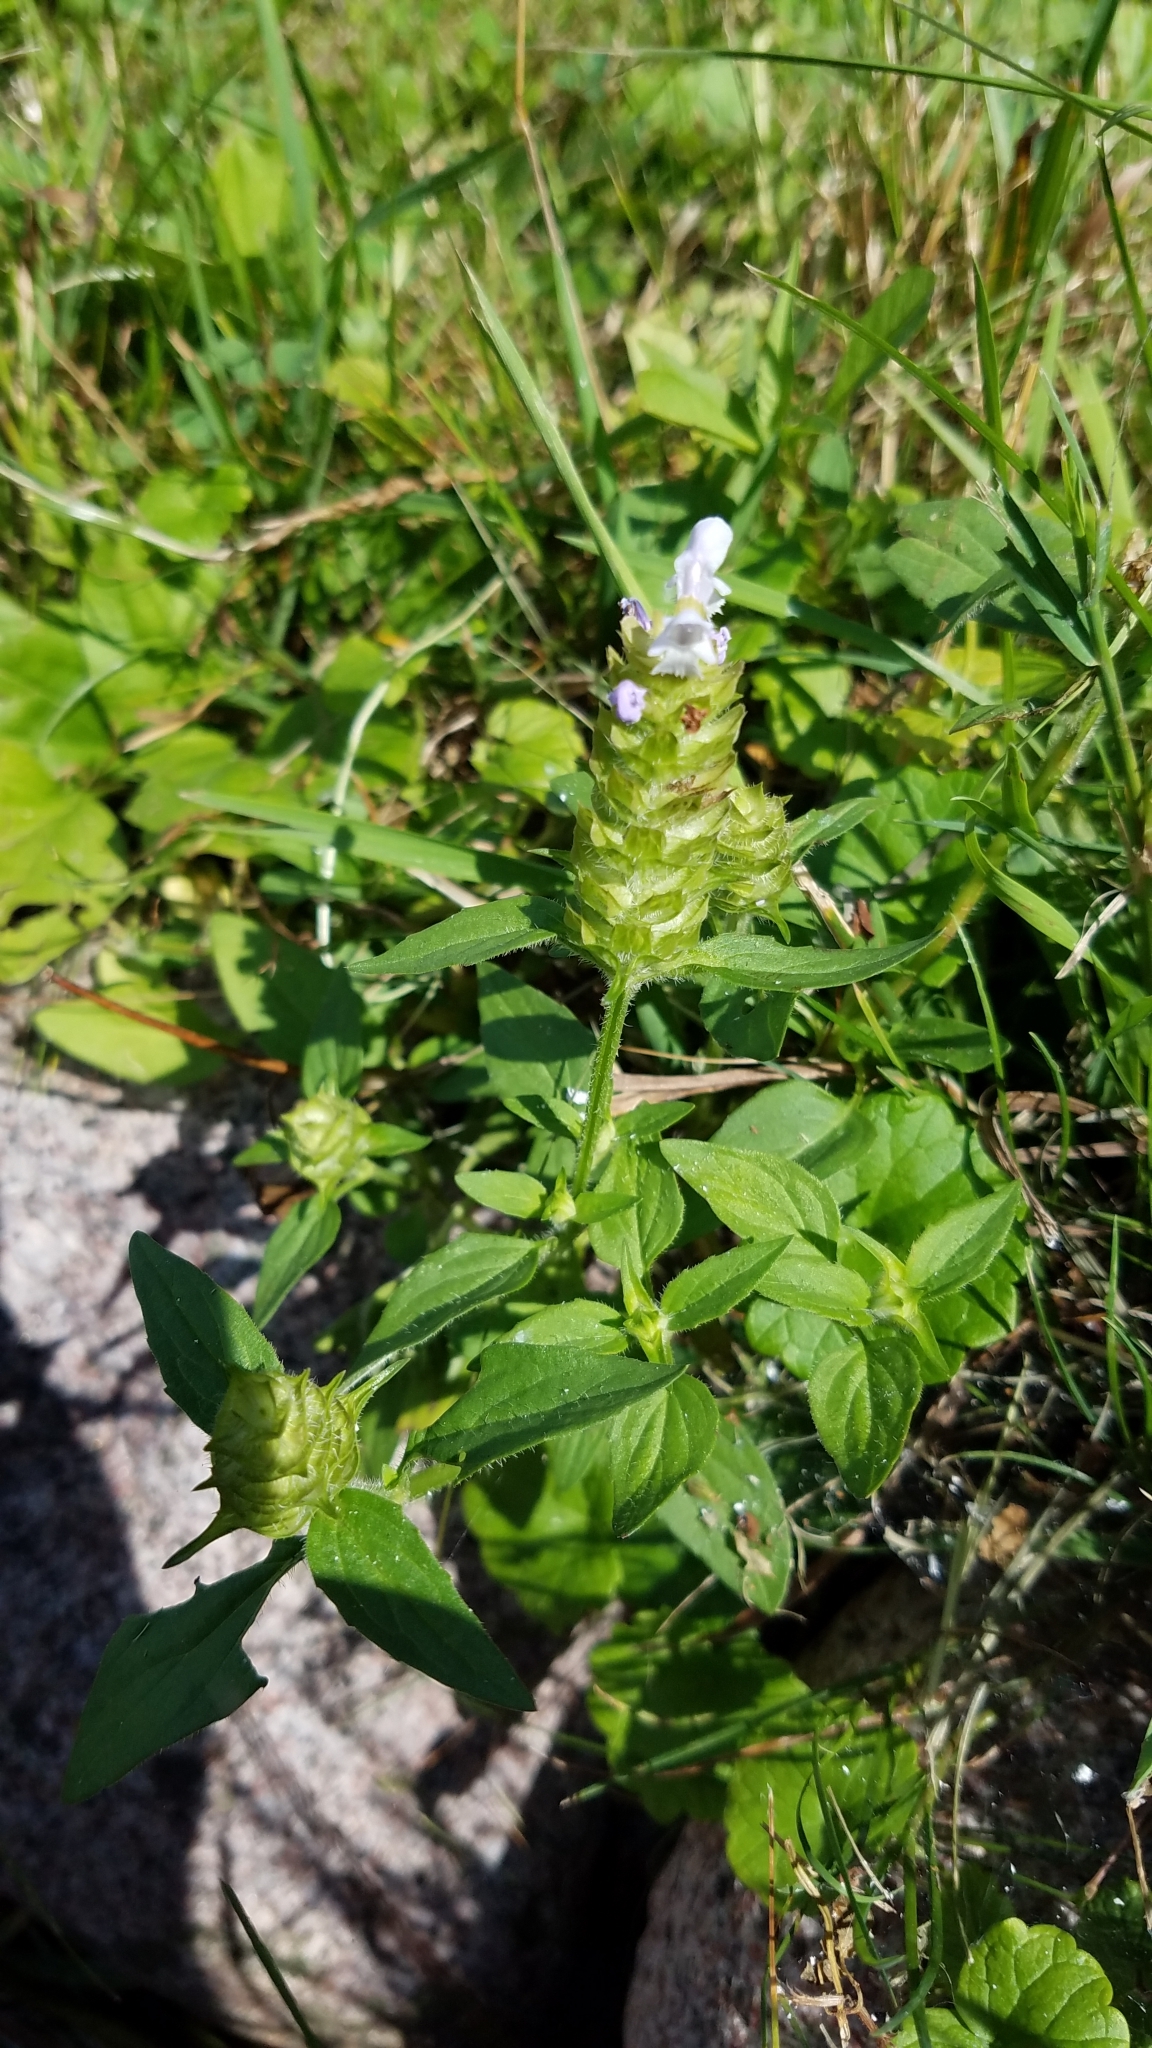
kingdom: Plantae
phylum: Tracheophyta
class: Magnoliopsida
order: Lamiales
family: Lamiaceae
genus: Prunella
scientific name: Prunella vulgaris
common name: Heal-all
